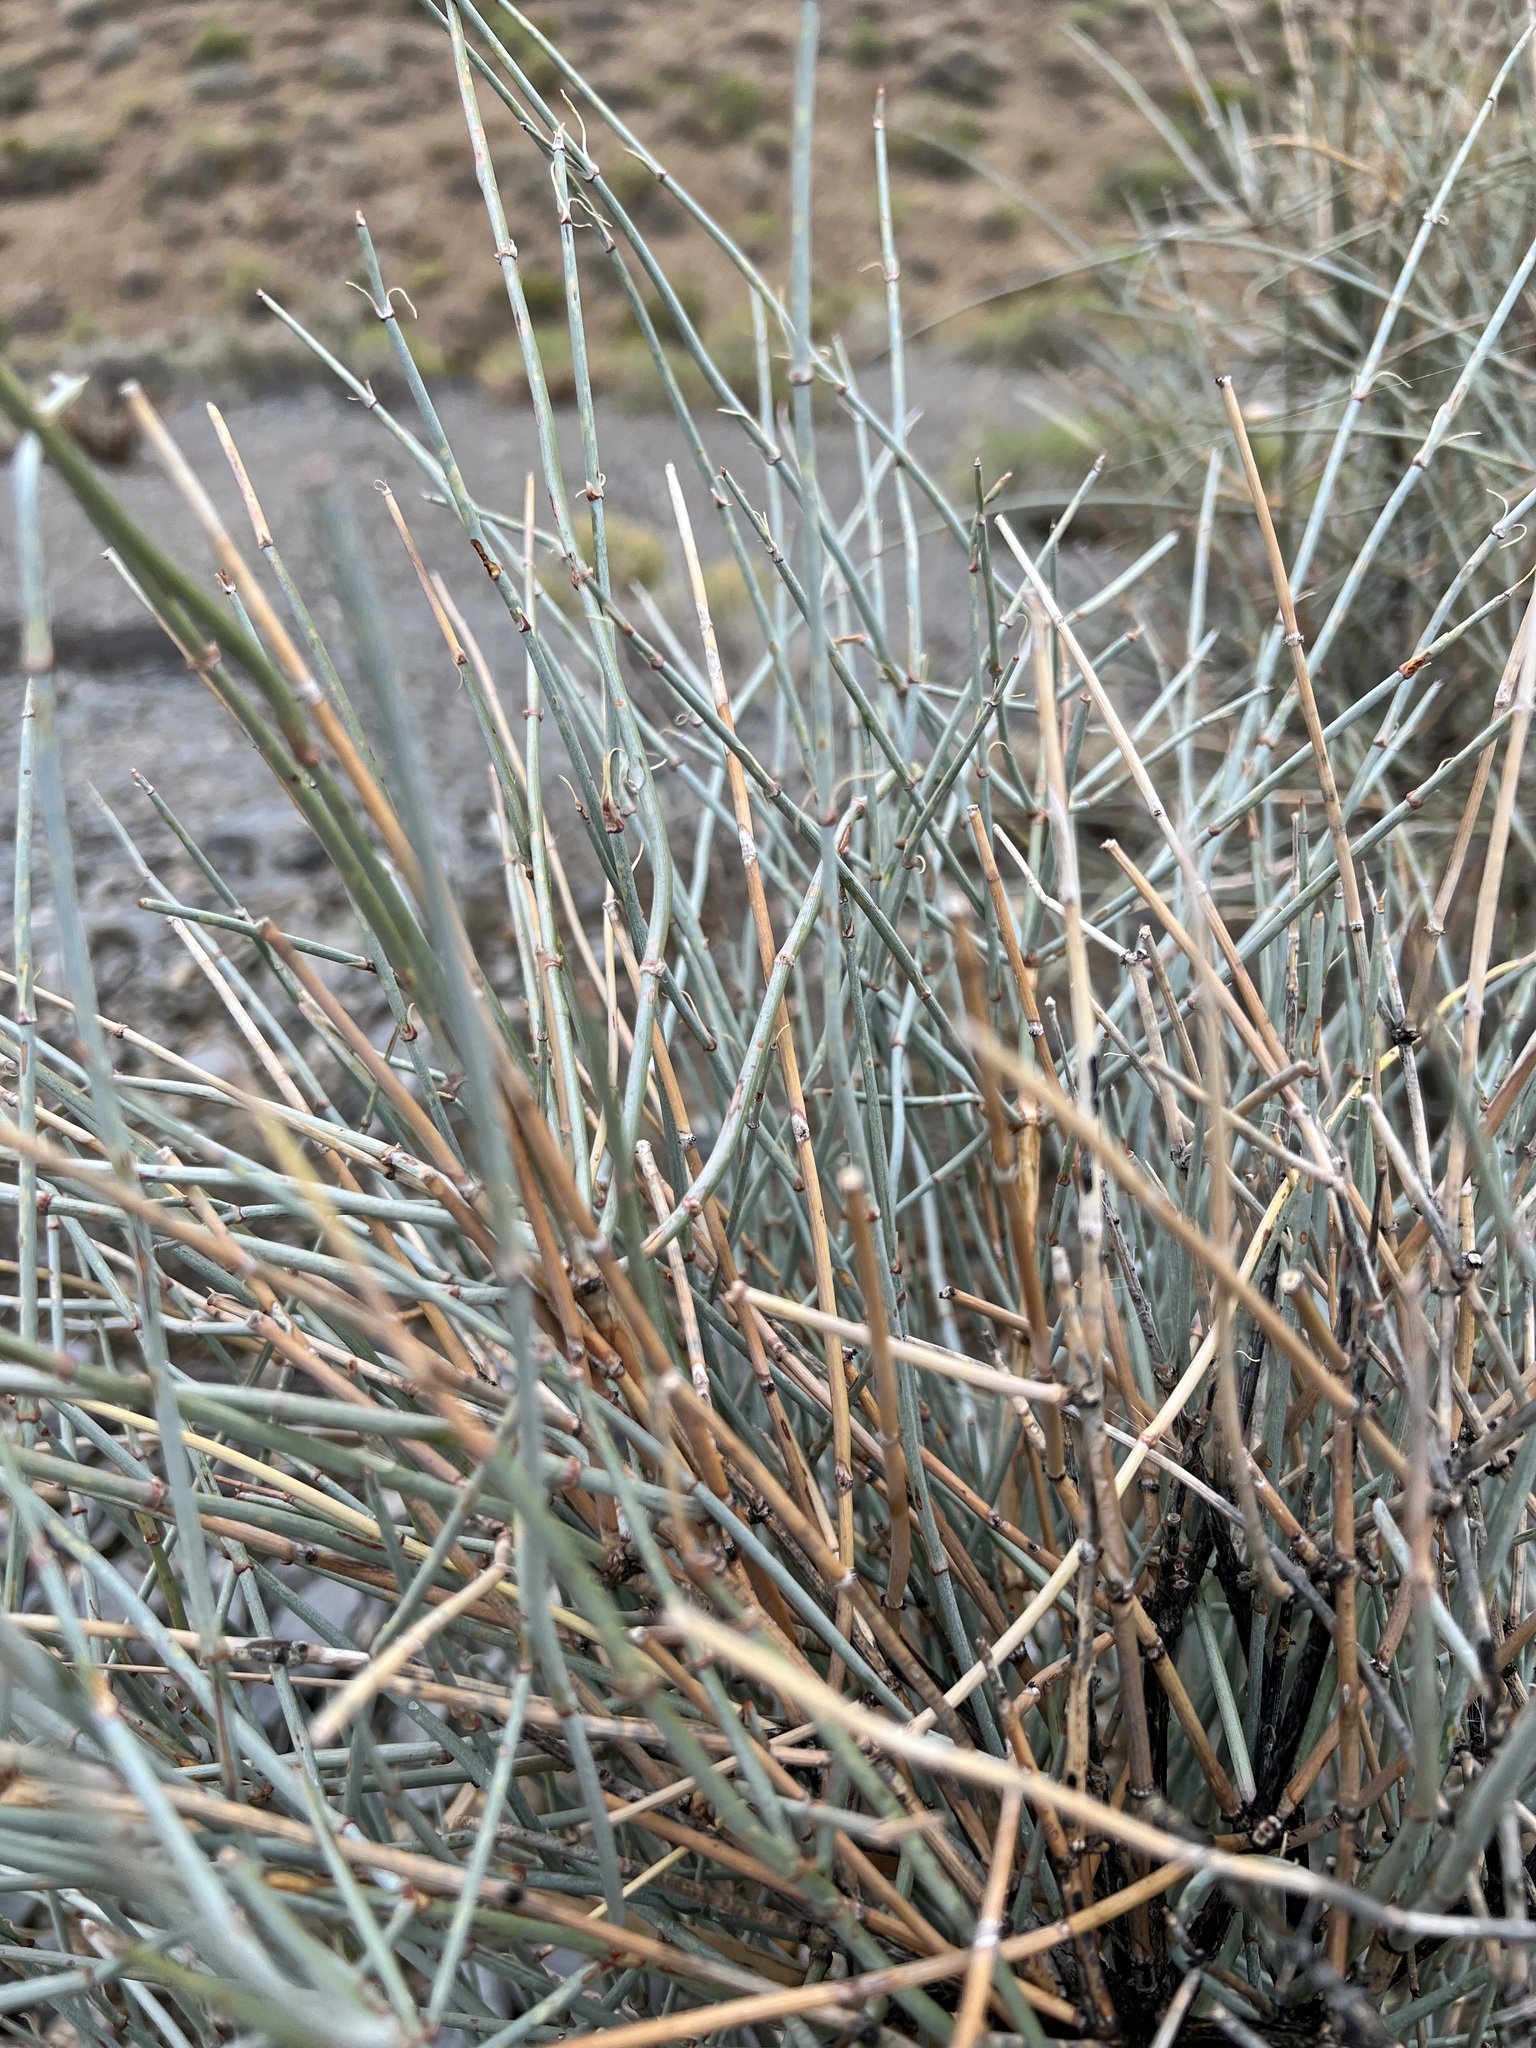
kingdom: Plantae
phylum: Tracheophyta
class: Gnetopsida
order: Ephedrales
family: Ephedraceae
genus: Ephedra
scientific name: Ephedra nevadensis
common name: Gray ephedra
